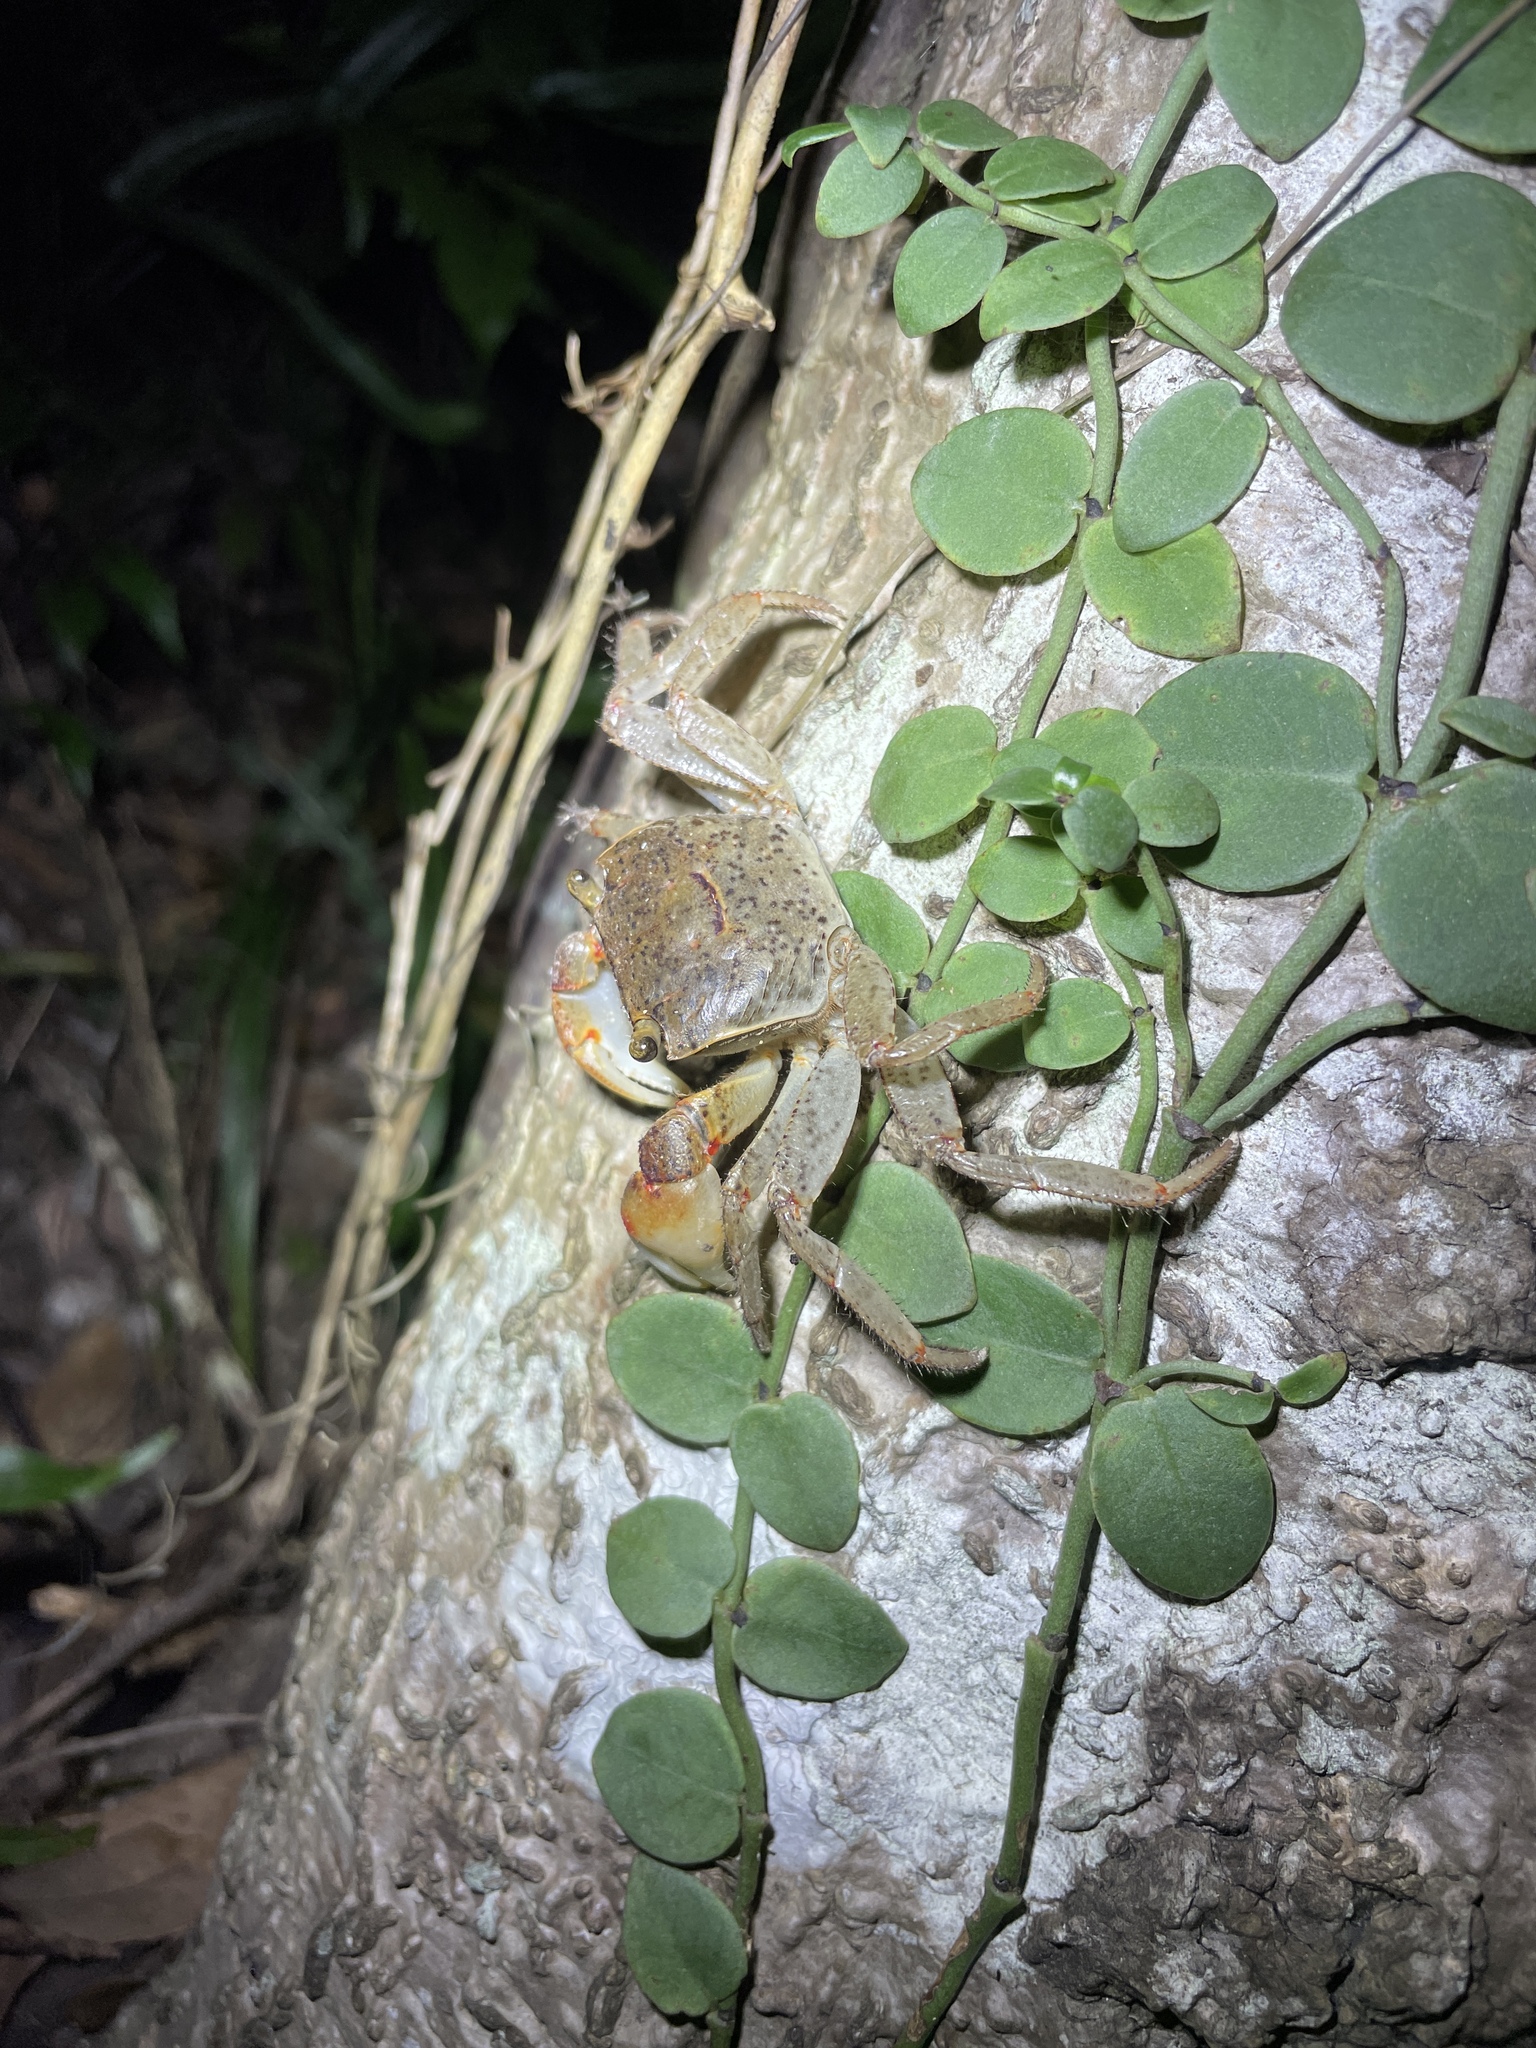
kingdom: Animalia
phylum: Arthropoda
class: Malacostraca
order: Decapoda
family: Sesarmidae
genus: Chiromantes
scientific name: Chiromantes haematocheir
